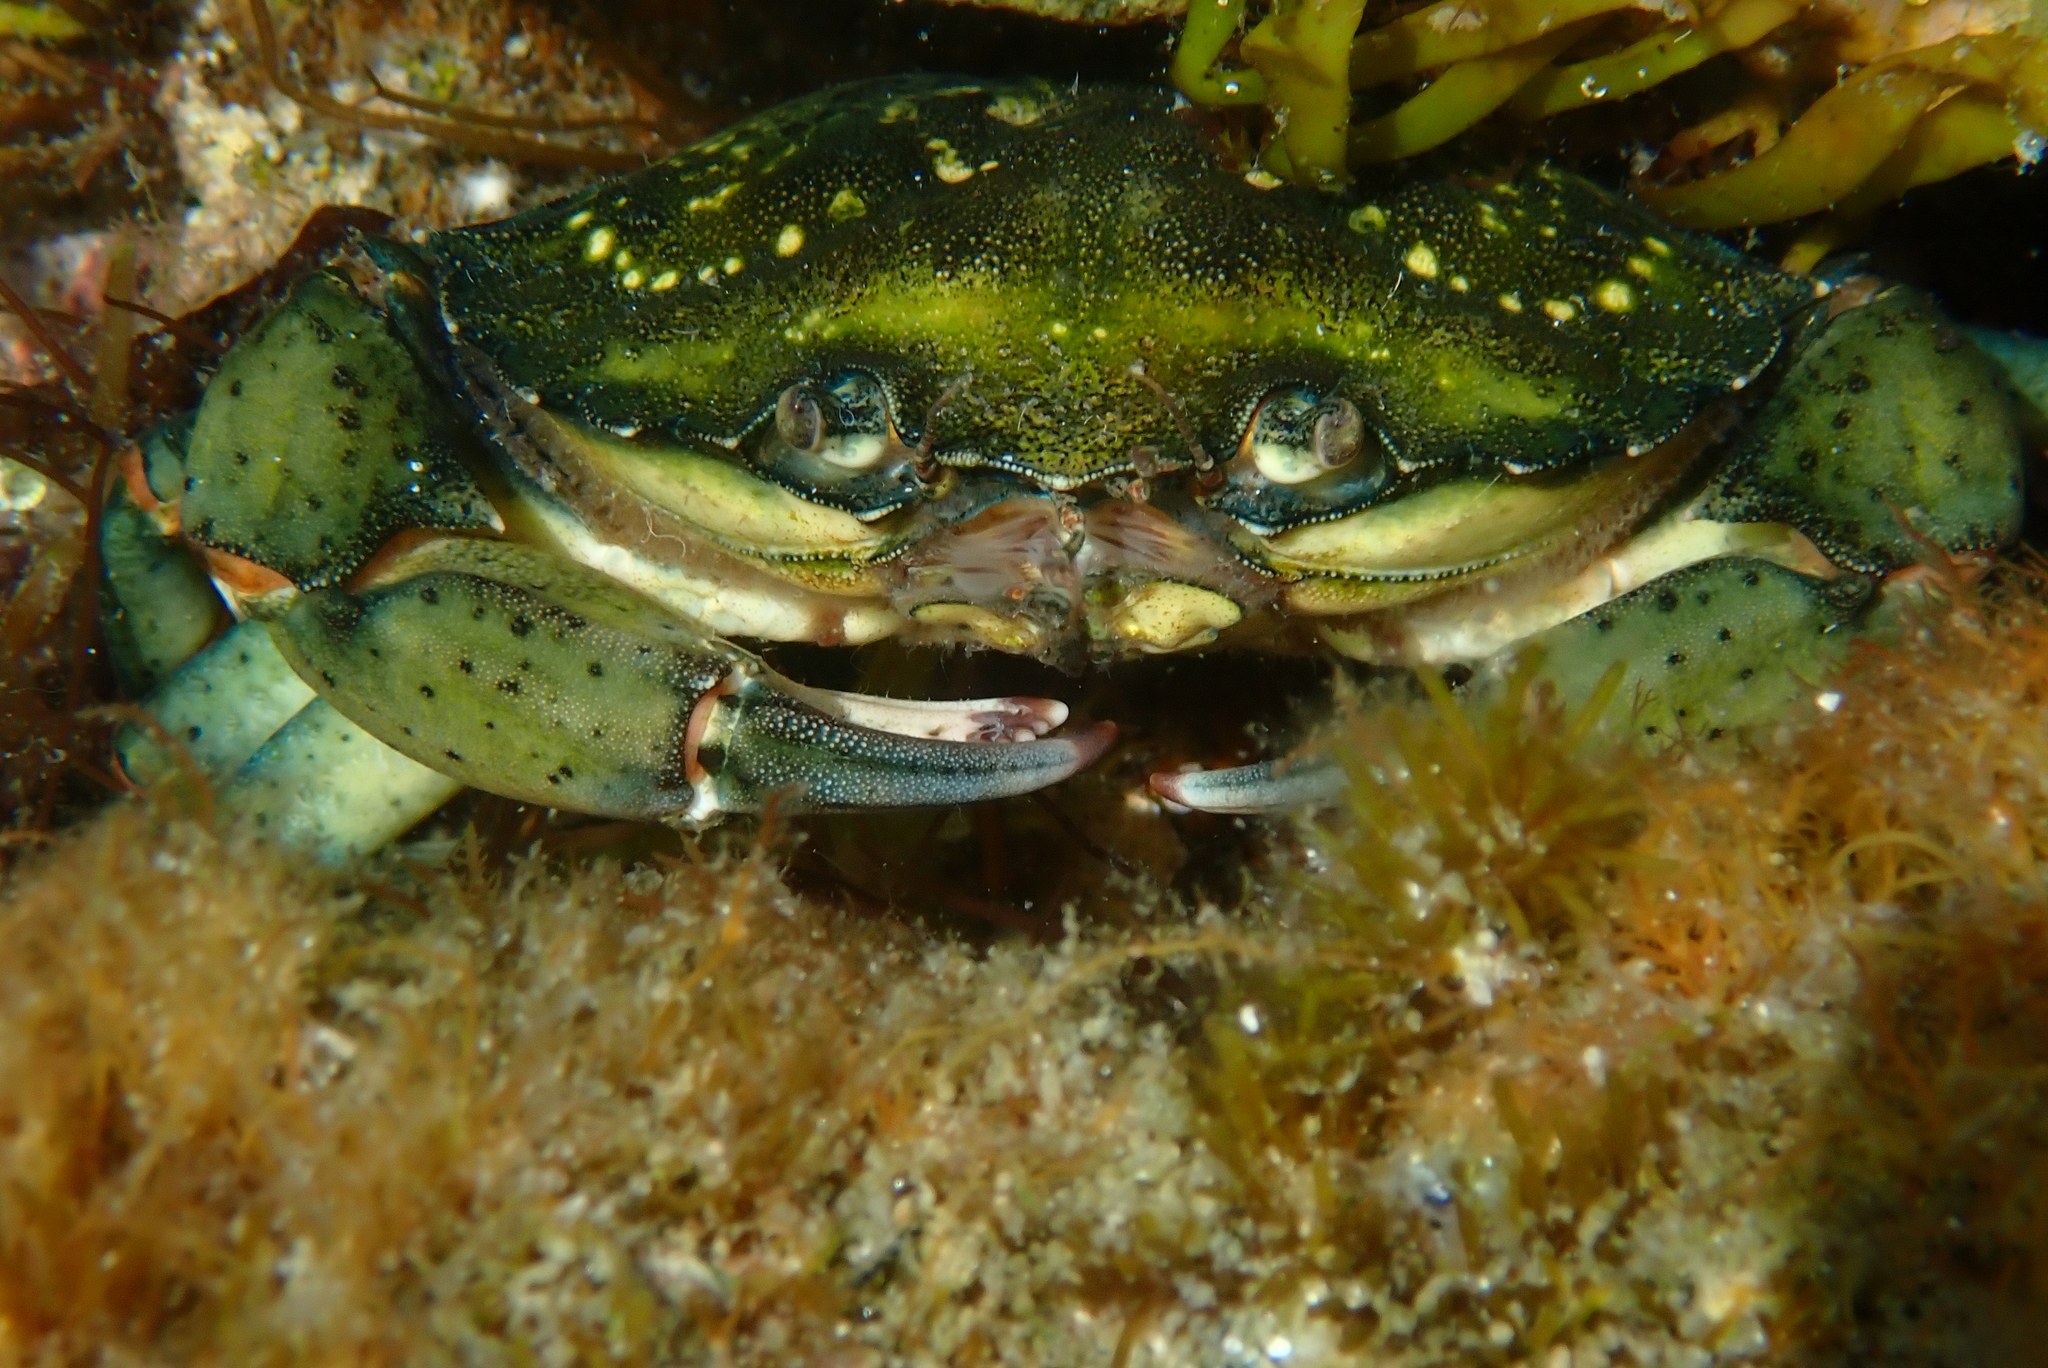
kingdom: Animalia
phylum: Arthropoda
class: Malacostraca
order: Decapoda
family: Carcinidae
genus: Carcinus
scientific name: Carcinus maenas
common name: European green crab
